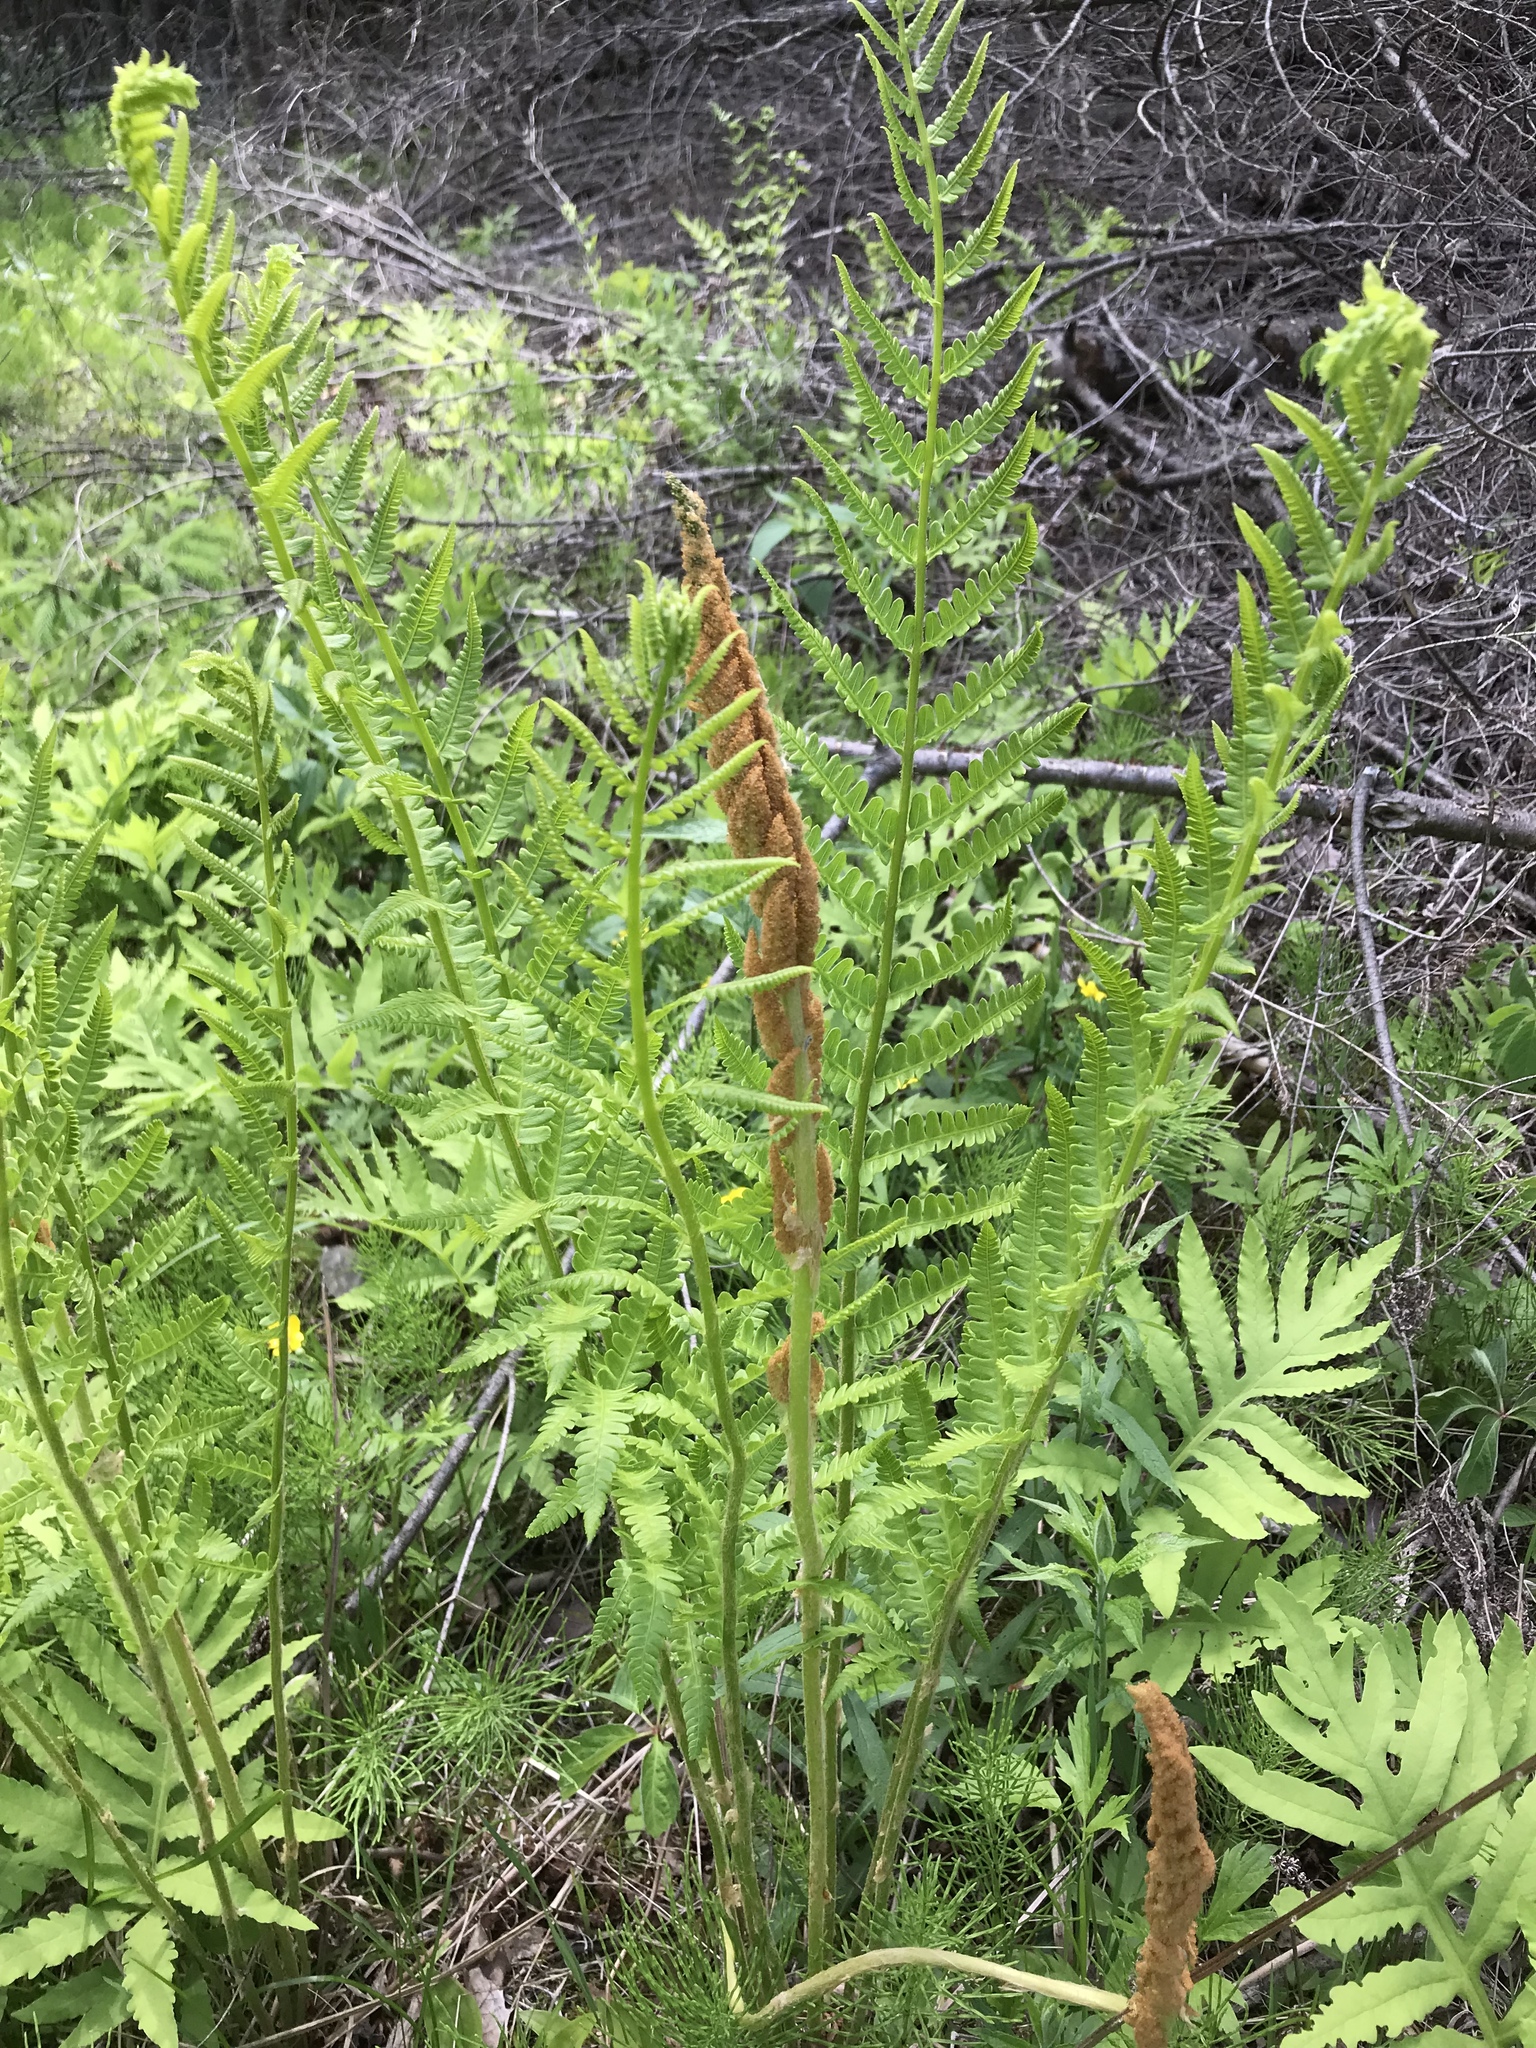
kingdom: Plantae
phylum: Tracheophyta
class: Polypodiopsida
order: Osmundales
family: Osmundaceae
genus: Osmundastrum
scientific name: Osmundastrum cinnamomeum
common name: Cinnamon fern
